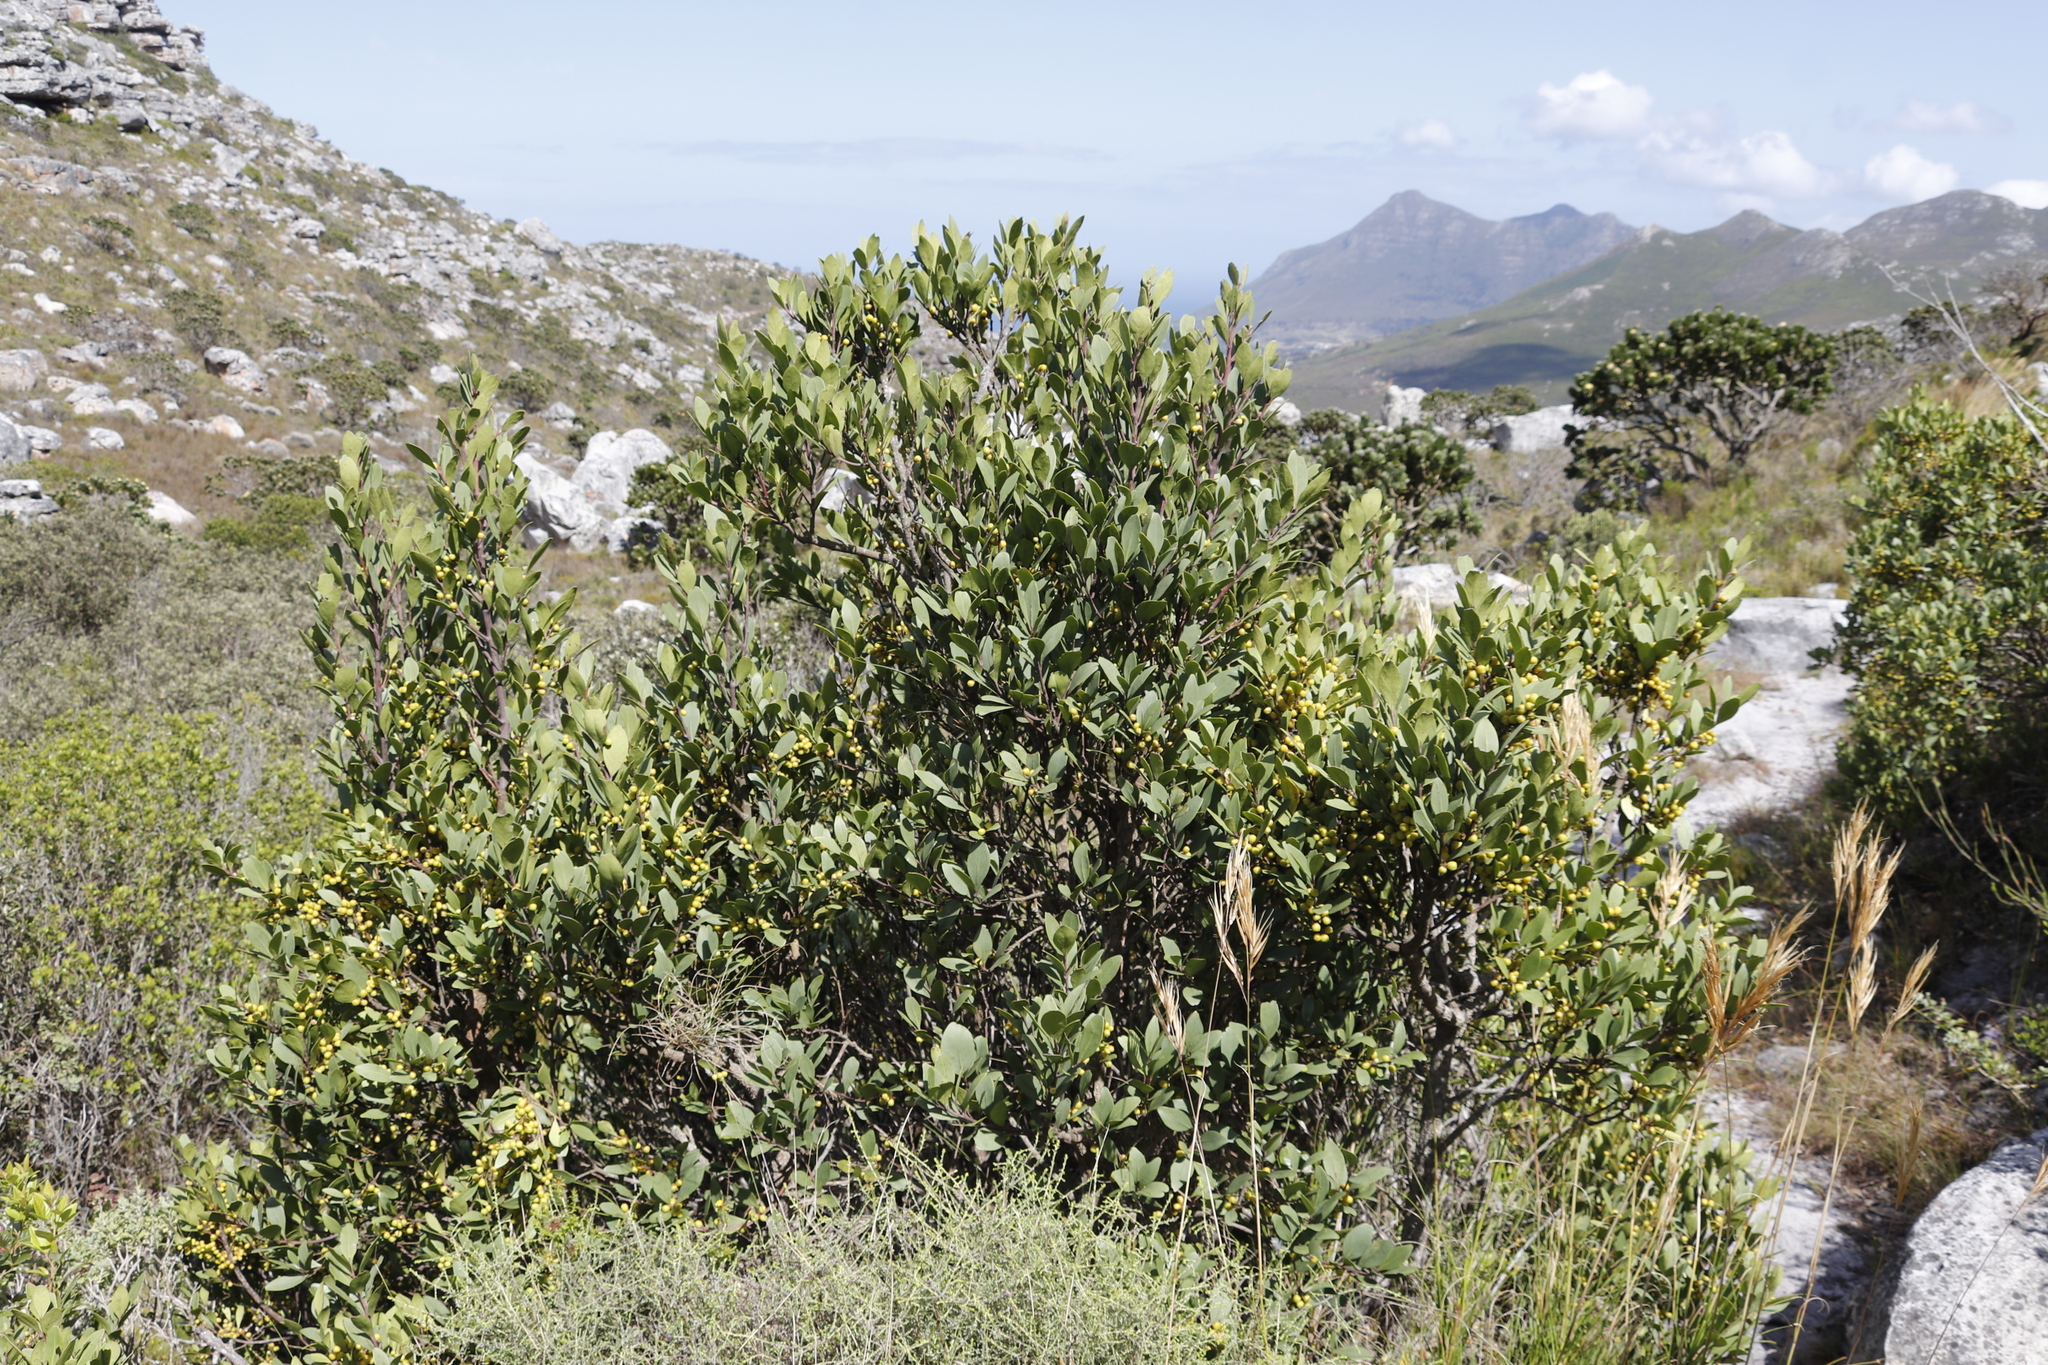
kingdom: Plantae
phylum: Tracheophyta
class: Magnoliopsida
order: Celastrales
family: Celastraceae
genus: Gymnosporia
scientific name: Gymnosporia laurina
